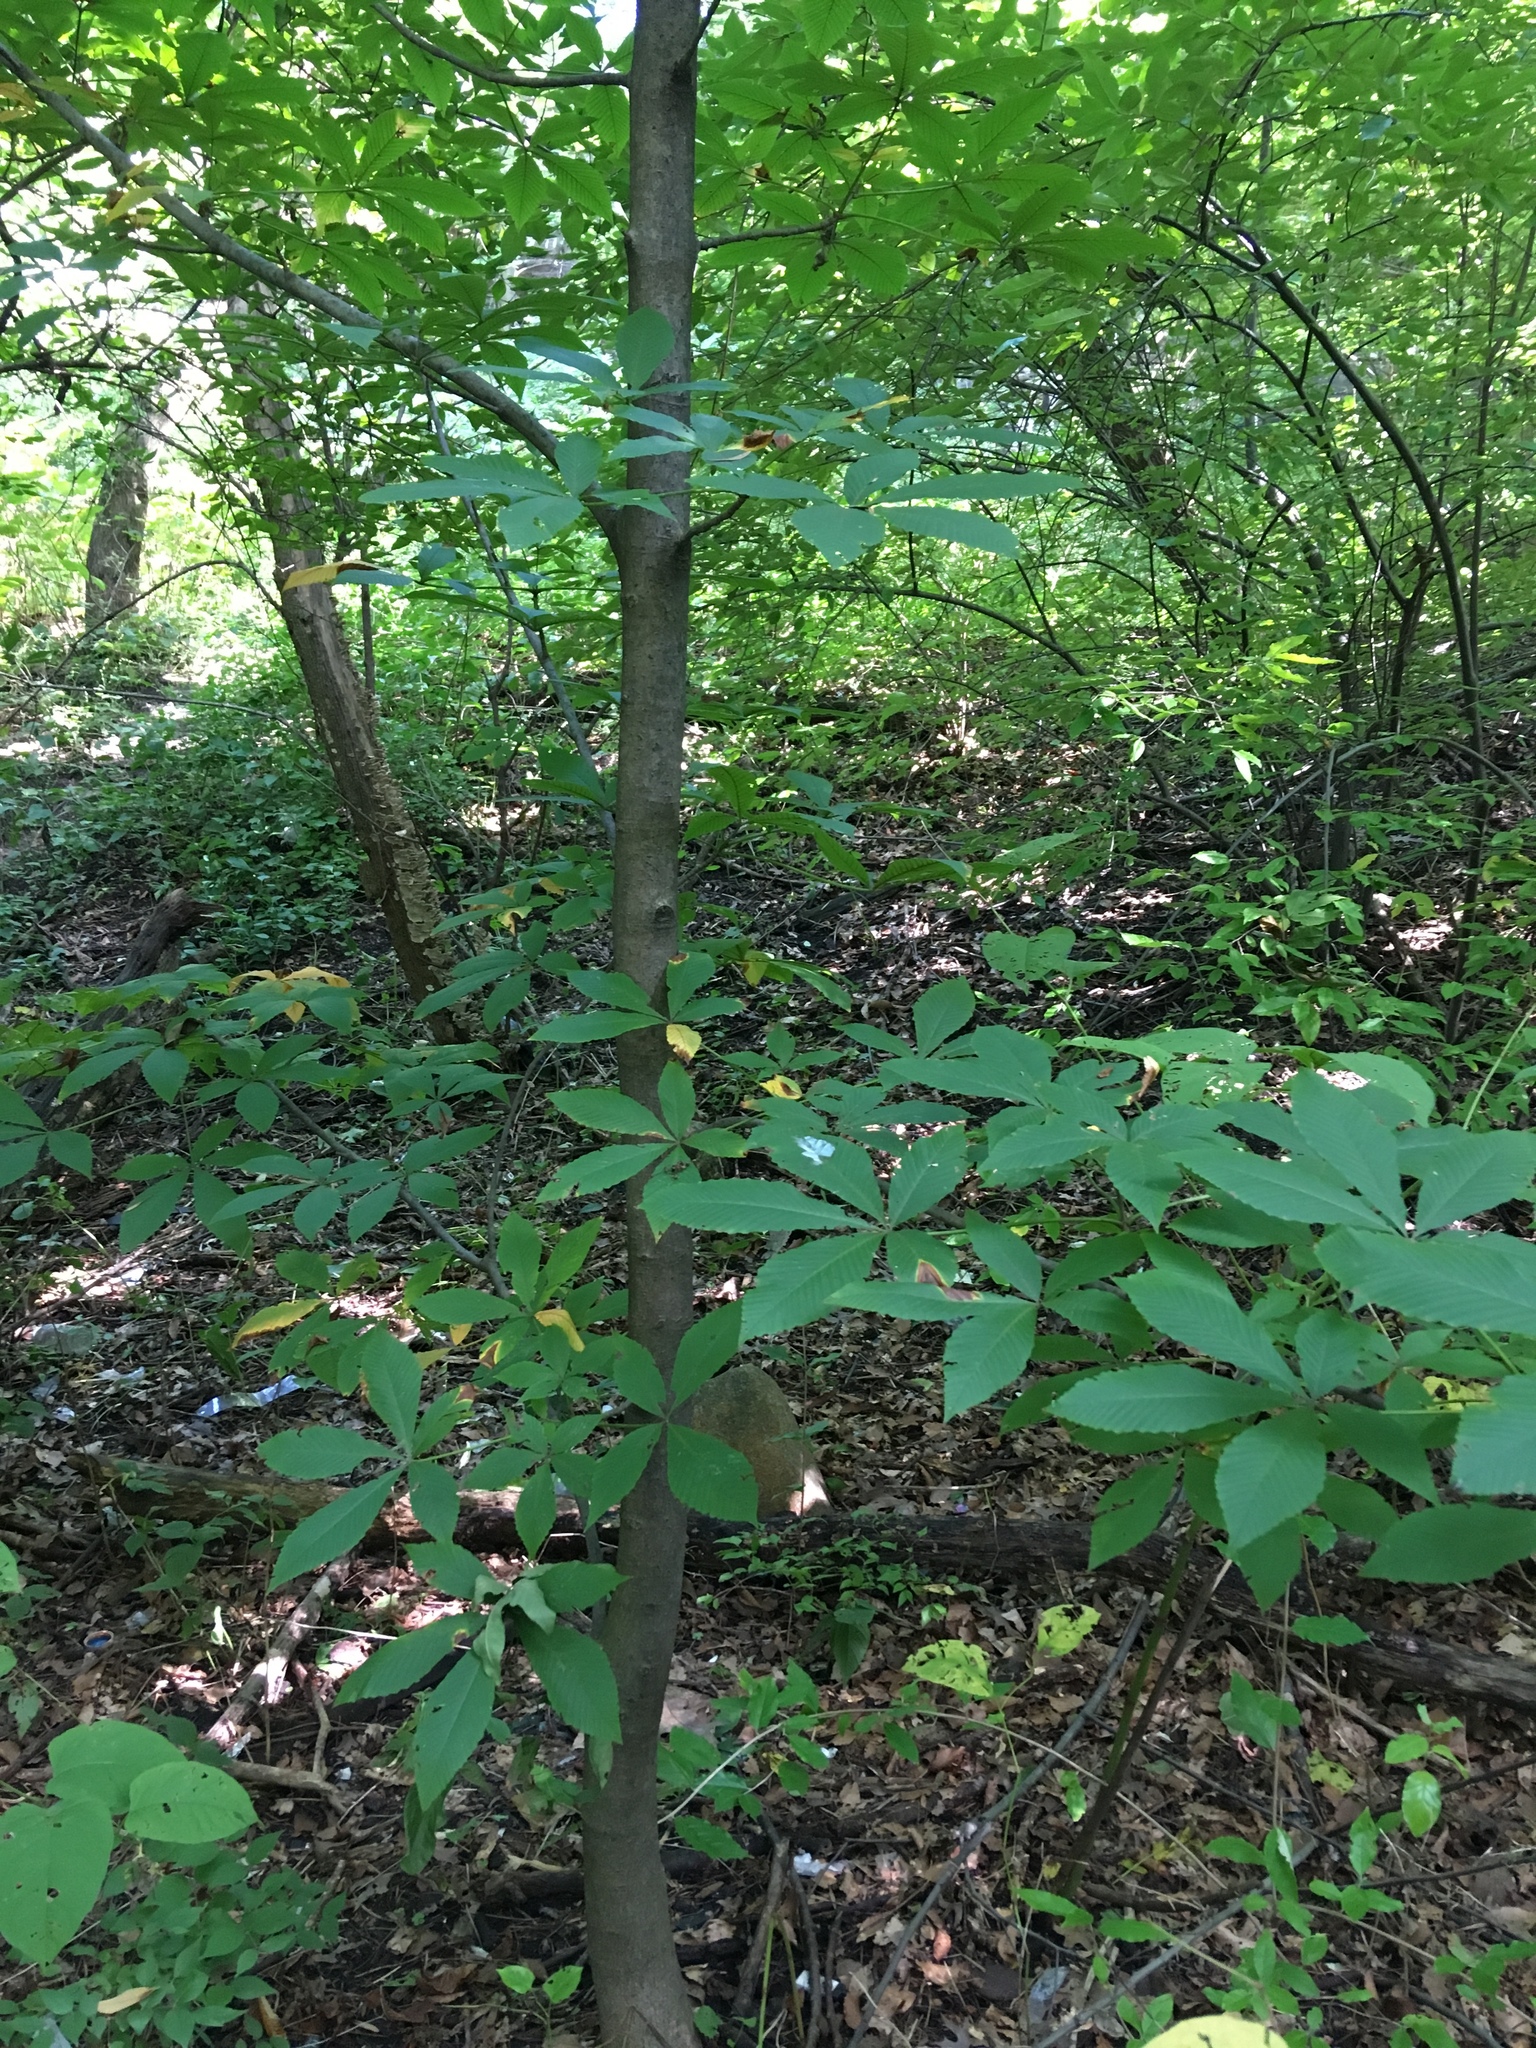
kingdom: Plantae
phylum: Tracheophyta
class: Magnoliopsida
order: Sapindales
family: Sapindaceae
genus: Aesculus
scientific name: Aesculus flava
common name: Yellow buckeye
